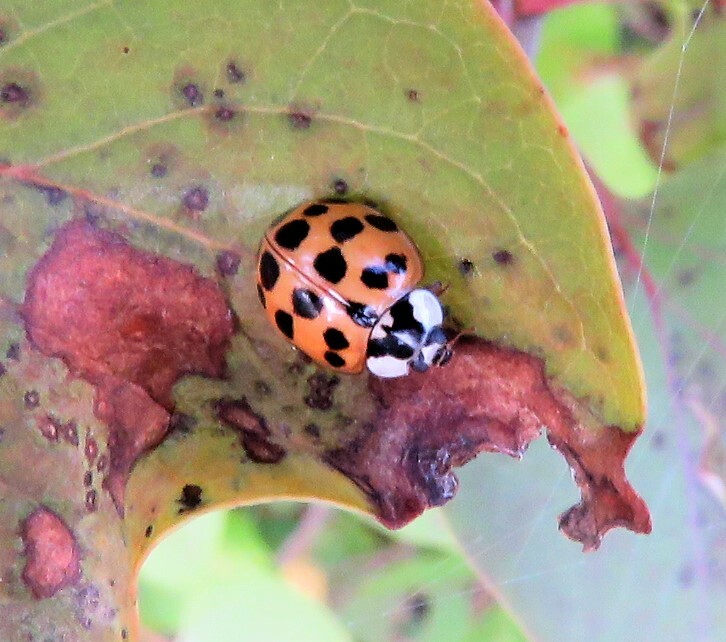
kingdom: Animalia
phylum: Arthropoda
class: Insecta
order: Coleoptera
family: Coccinellidae
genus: Harmonia
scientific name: Harmonia axyridis
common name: Harlequin ladybird
